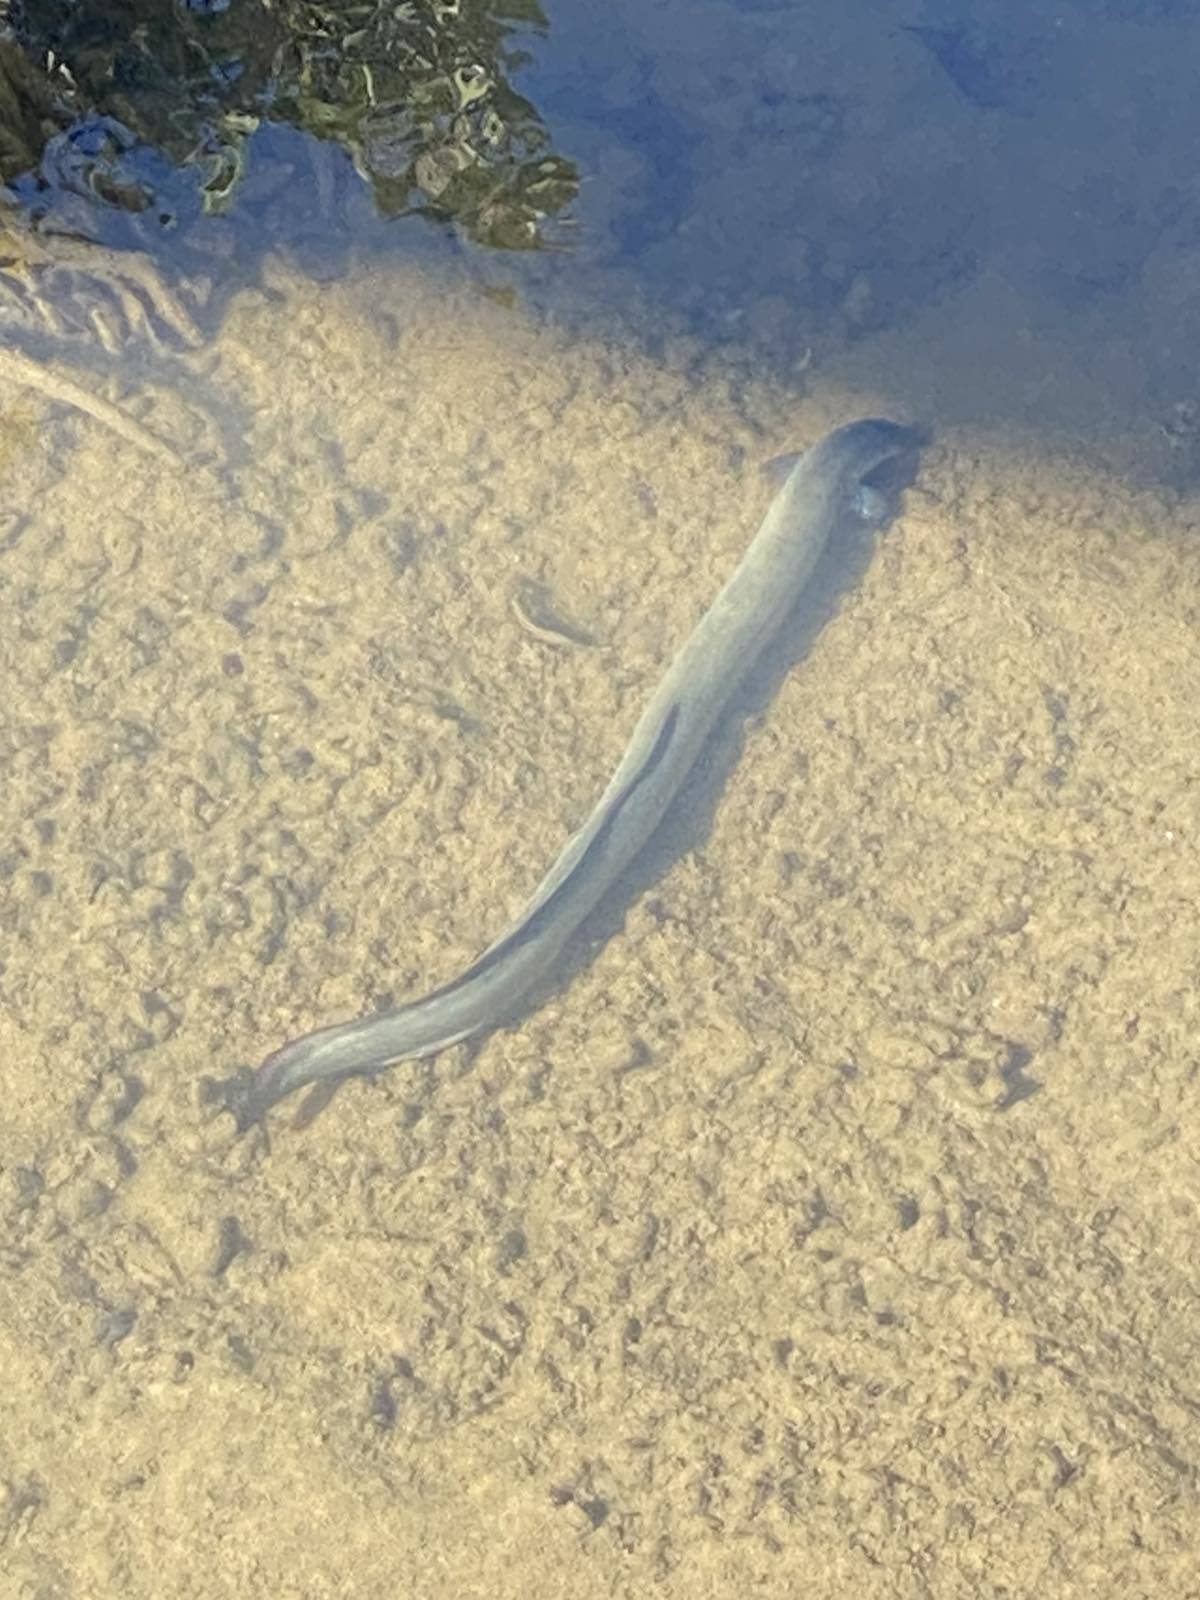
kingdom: Animalia
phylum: Chordata
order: Anguilliformes
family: Anguillidae
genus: Anguilla
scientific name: Anguilla australis
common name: Shortfin eel
